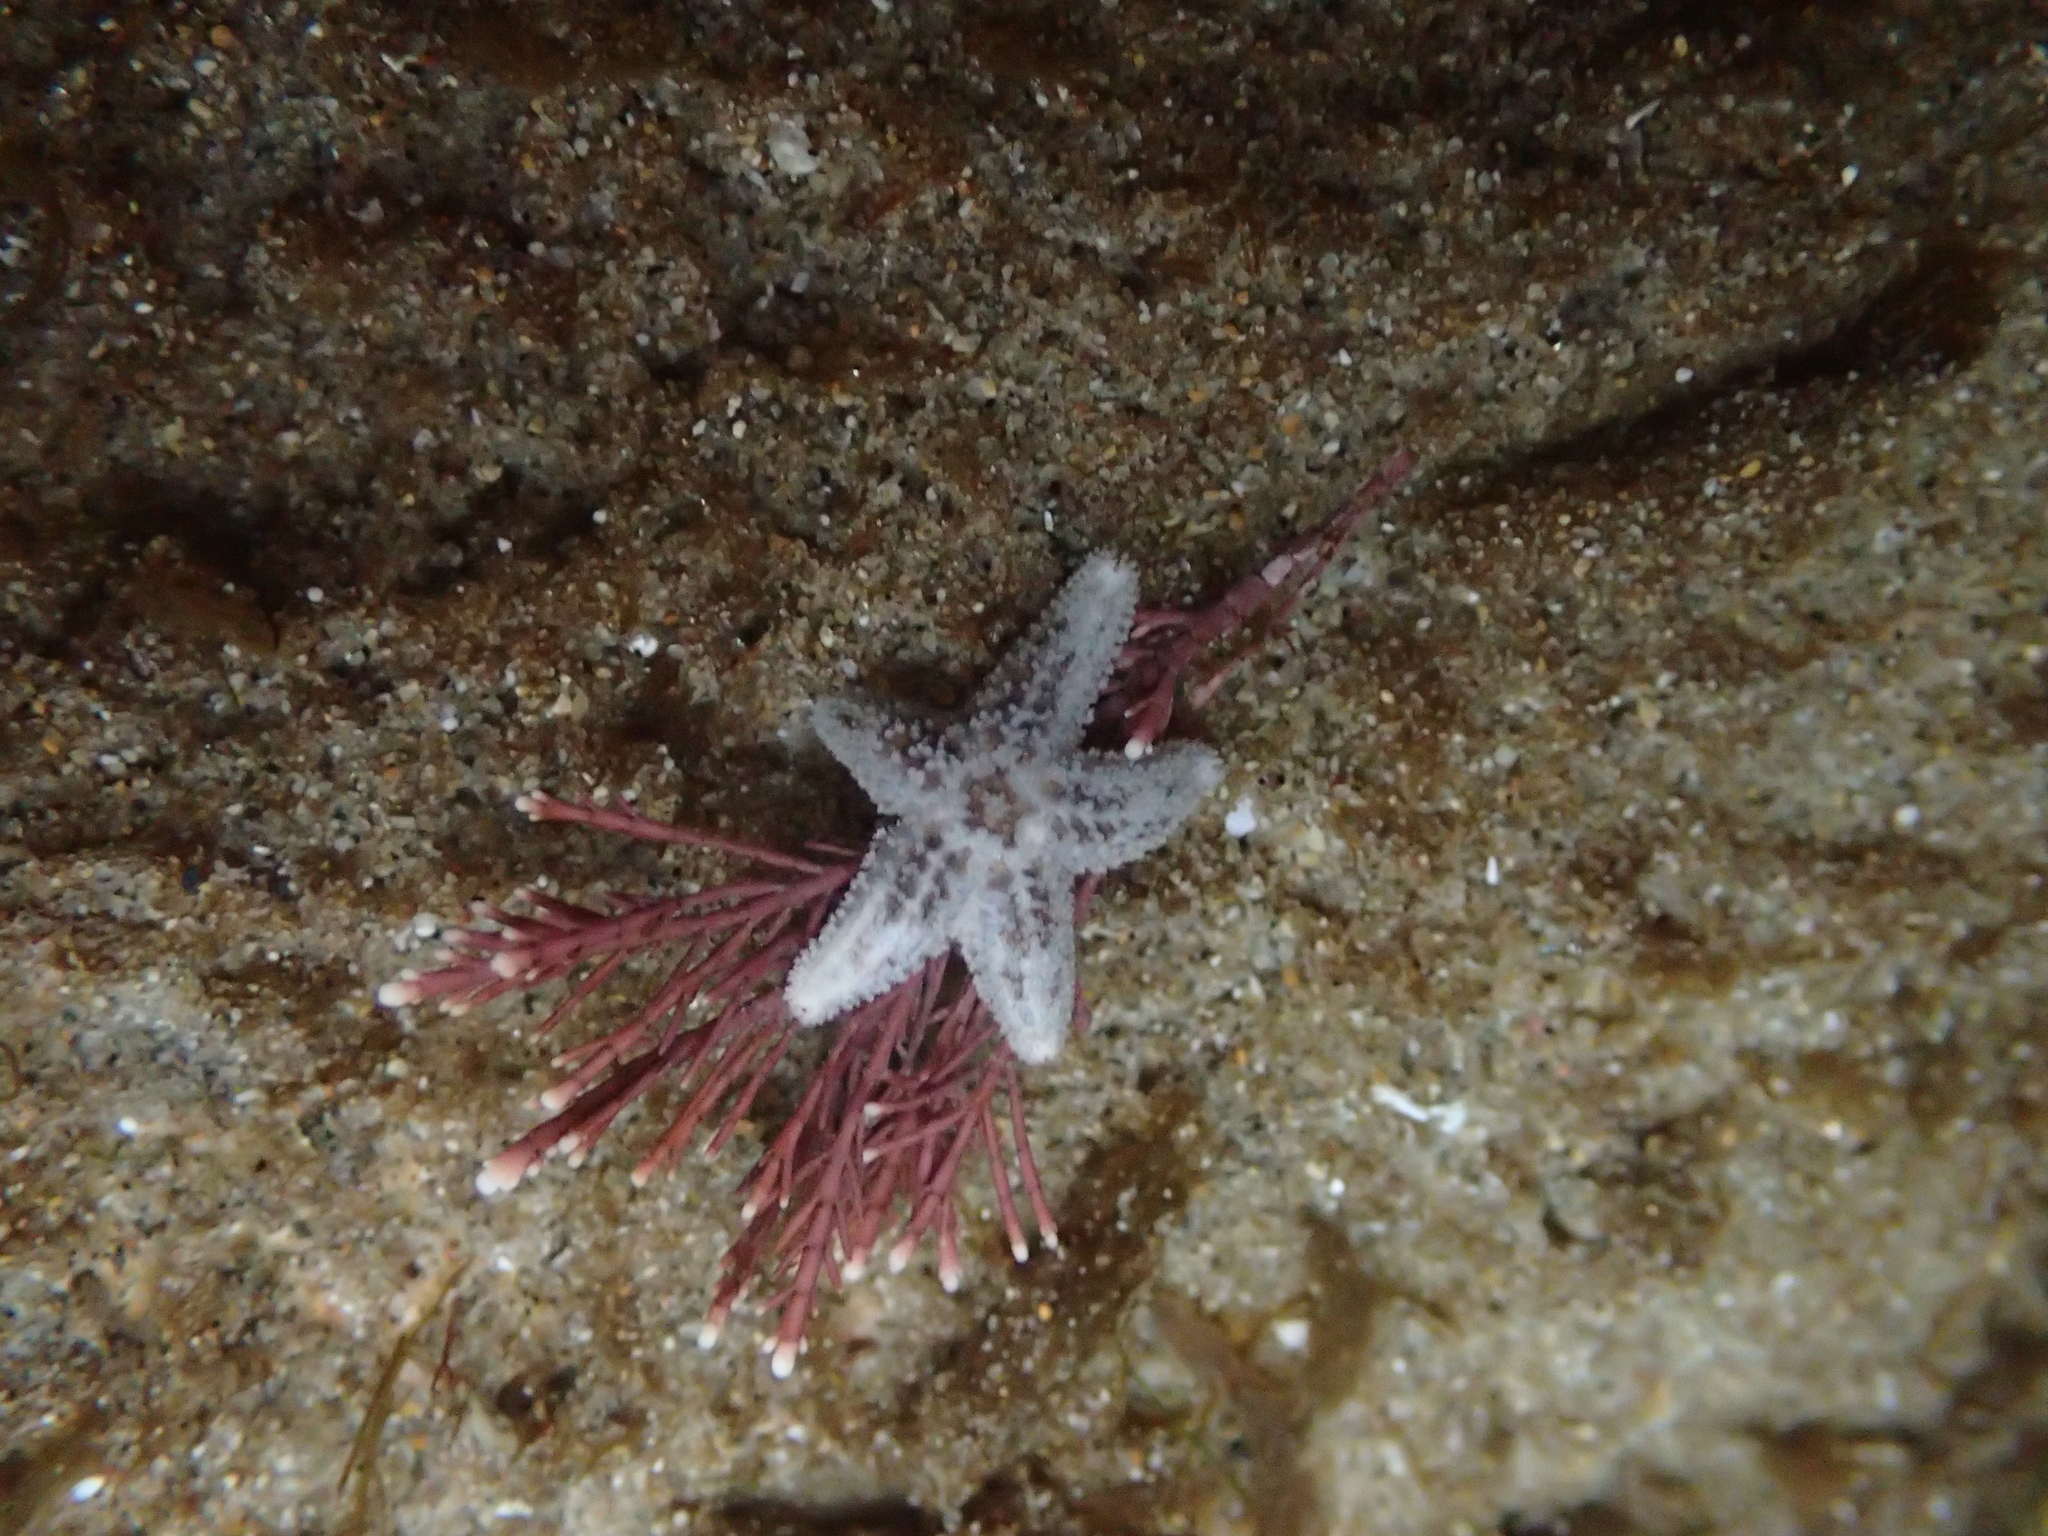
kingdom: Animalia
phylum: Echinodermata
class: Asteroidea
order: Forcipulatida
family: Asteriidae
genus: Pisaster
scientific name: Pisaster ochraceus
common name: Ochre stars
